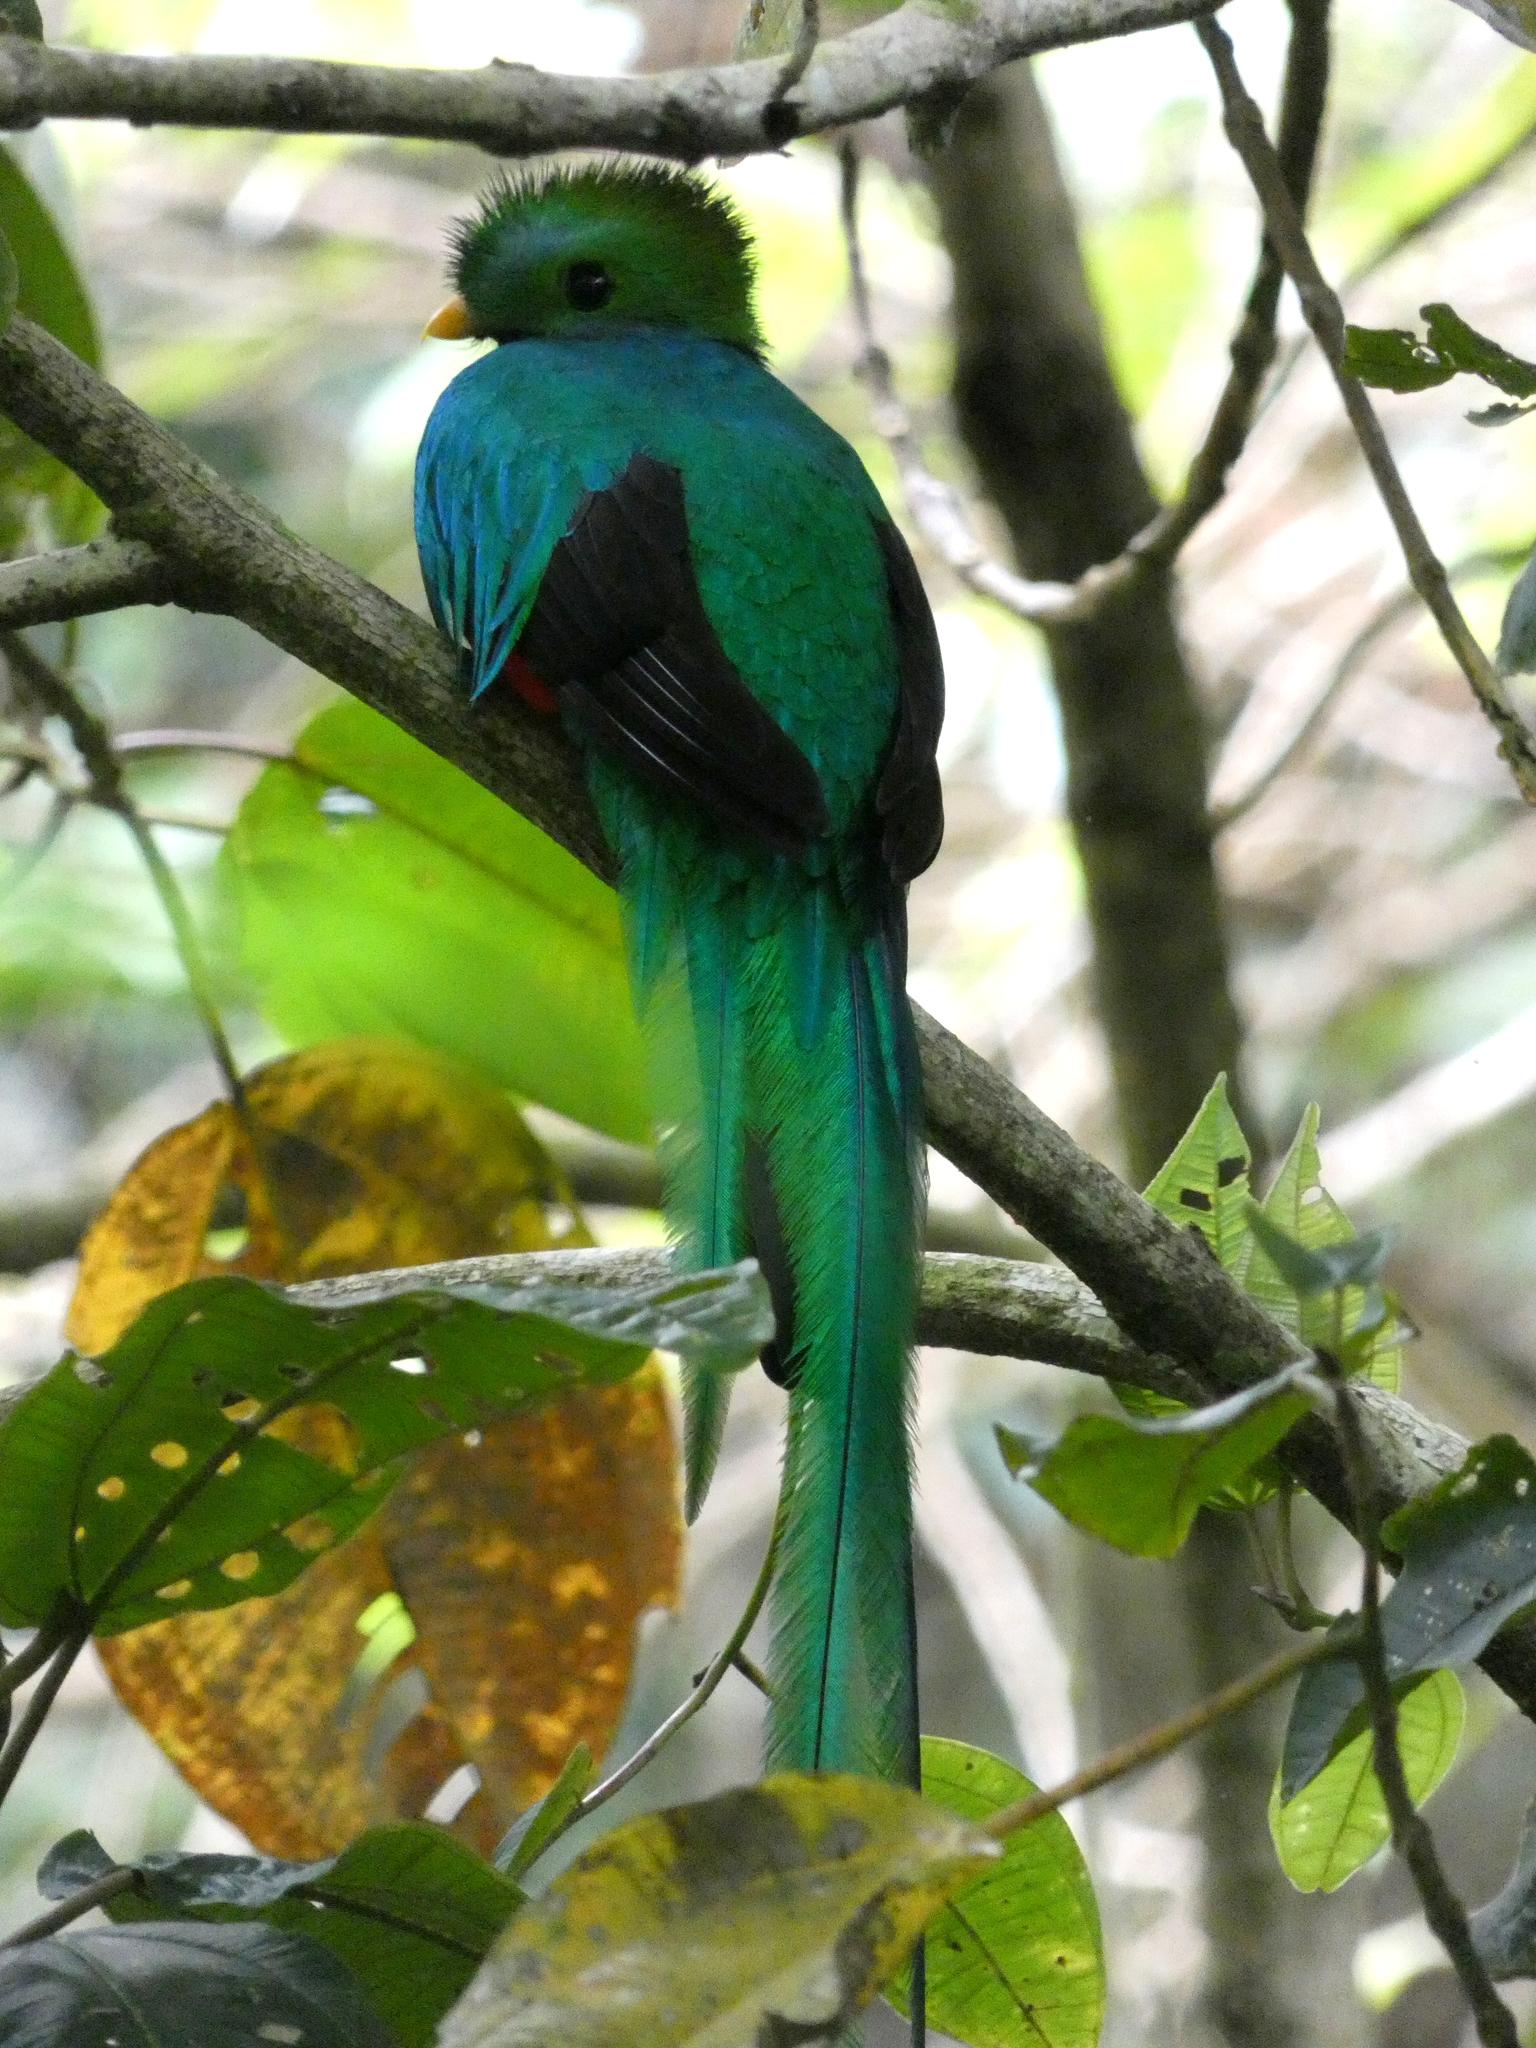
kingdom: Animalia
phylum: Chordata
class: Aves
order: Trogoniformes
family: Trogonidae
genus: Pharomachrus
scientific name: Pharomachrus mocinno
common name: Resplendent quetzal
